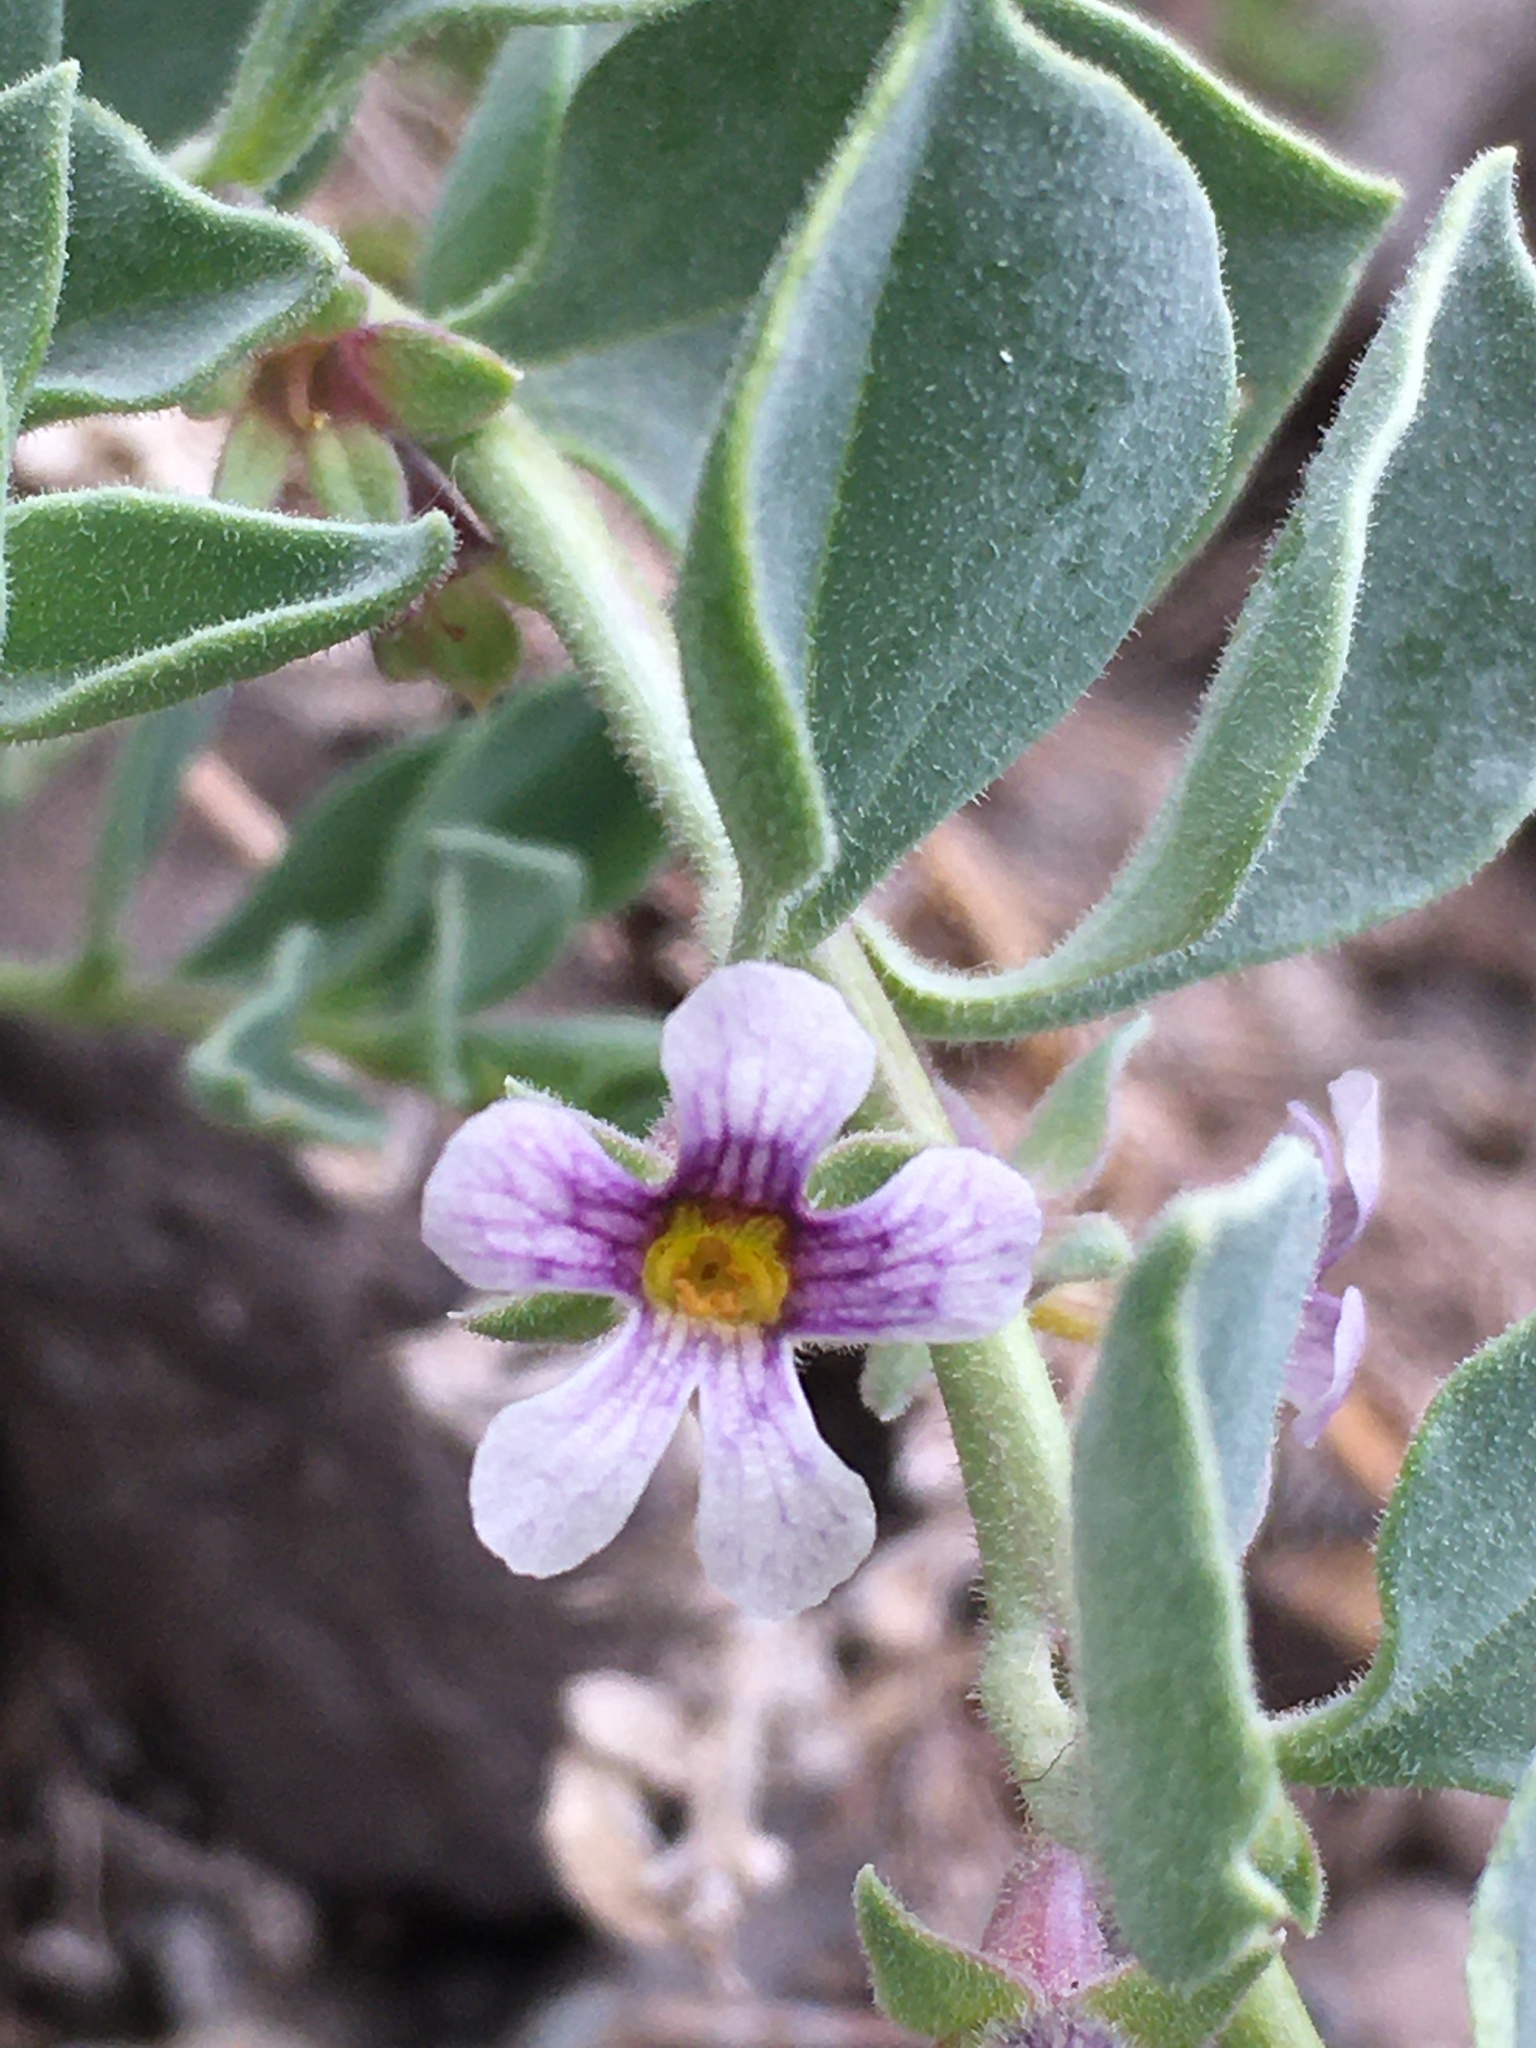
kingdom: Plantae
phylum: Tracheophyta
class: Magnoliopsida
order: Lamiales
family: Plantaginaceae
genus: Melosperma
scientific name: Melosperma andicola
